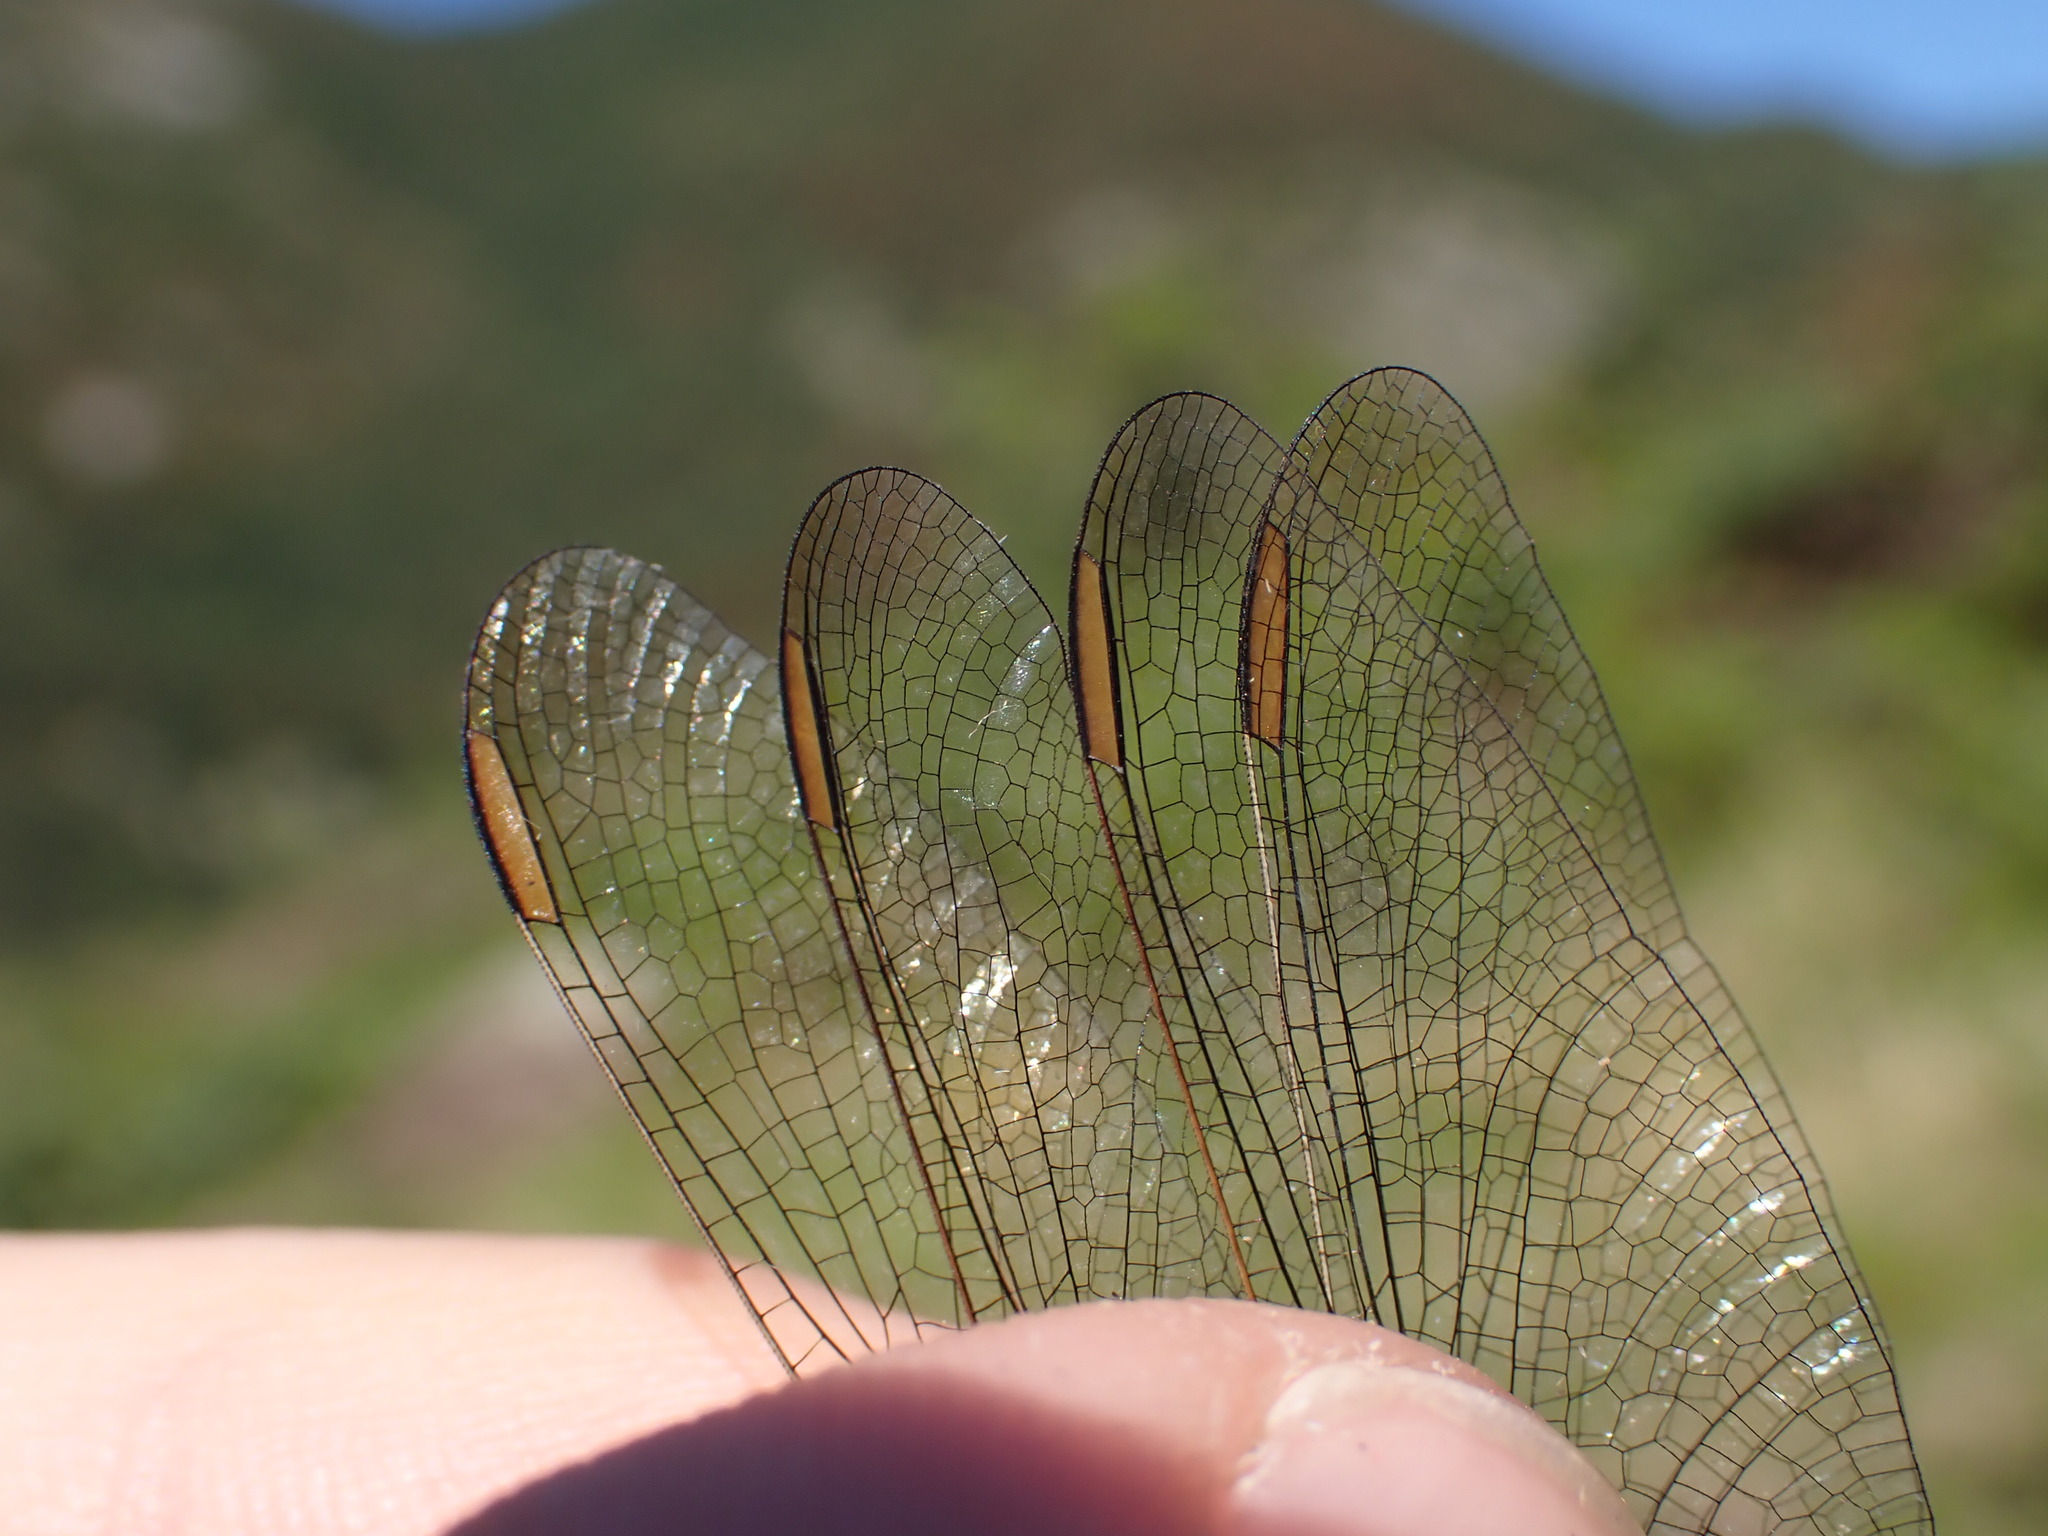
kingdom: Animalia
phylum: Arthropoda
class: Insecta
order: Odonata
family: Libellulidae
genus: Orthetrum
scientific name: Orthetrum coerulescens
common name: Keeled skimmer
